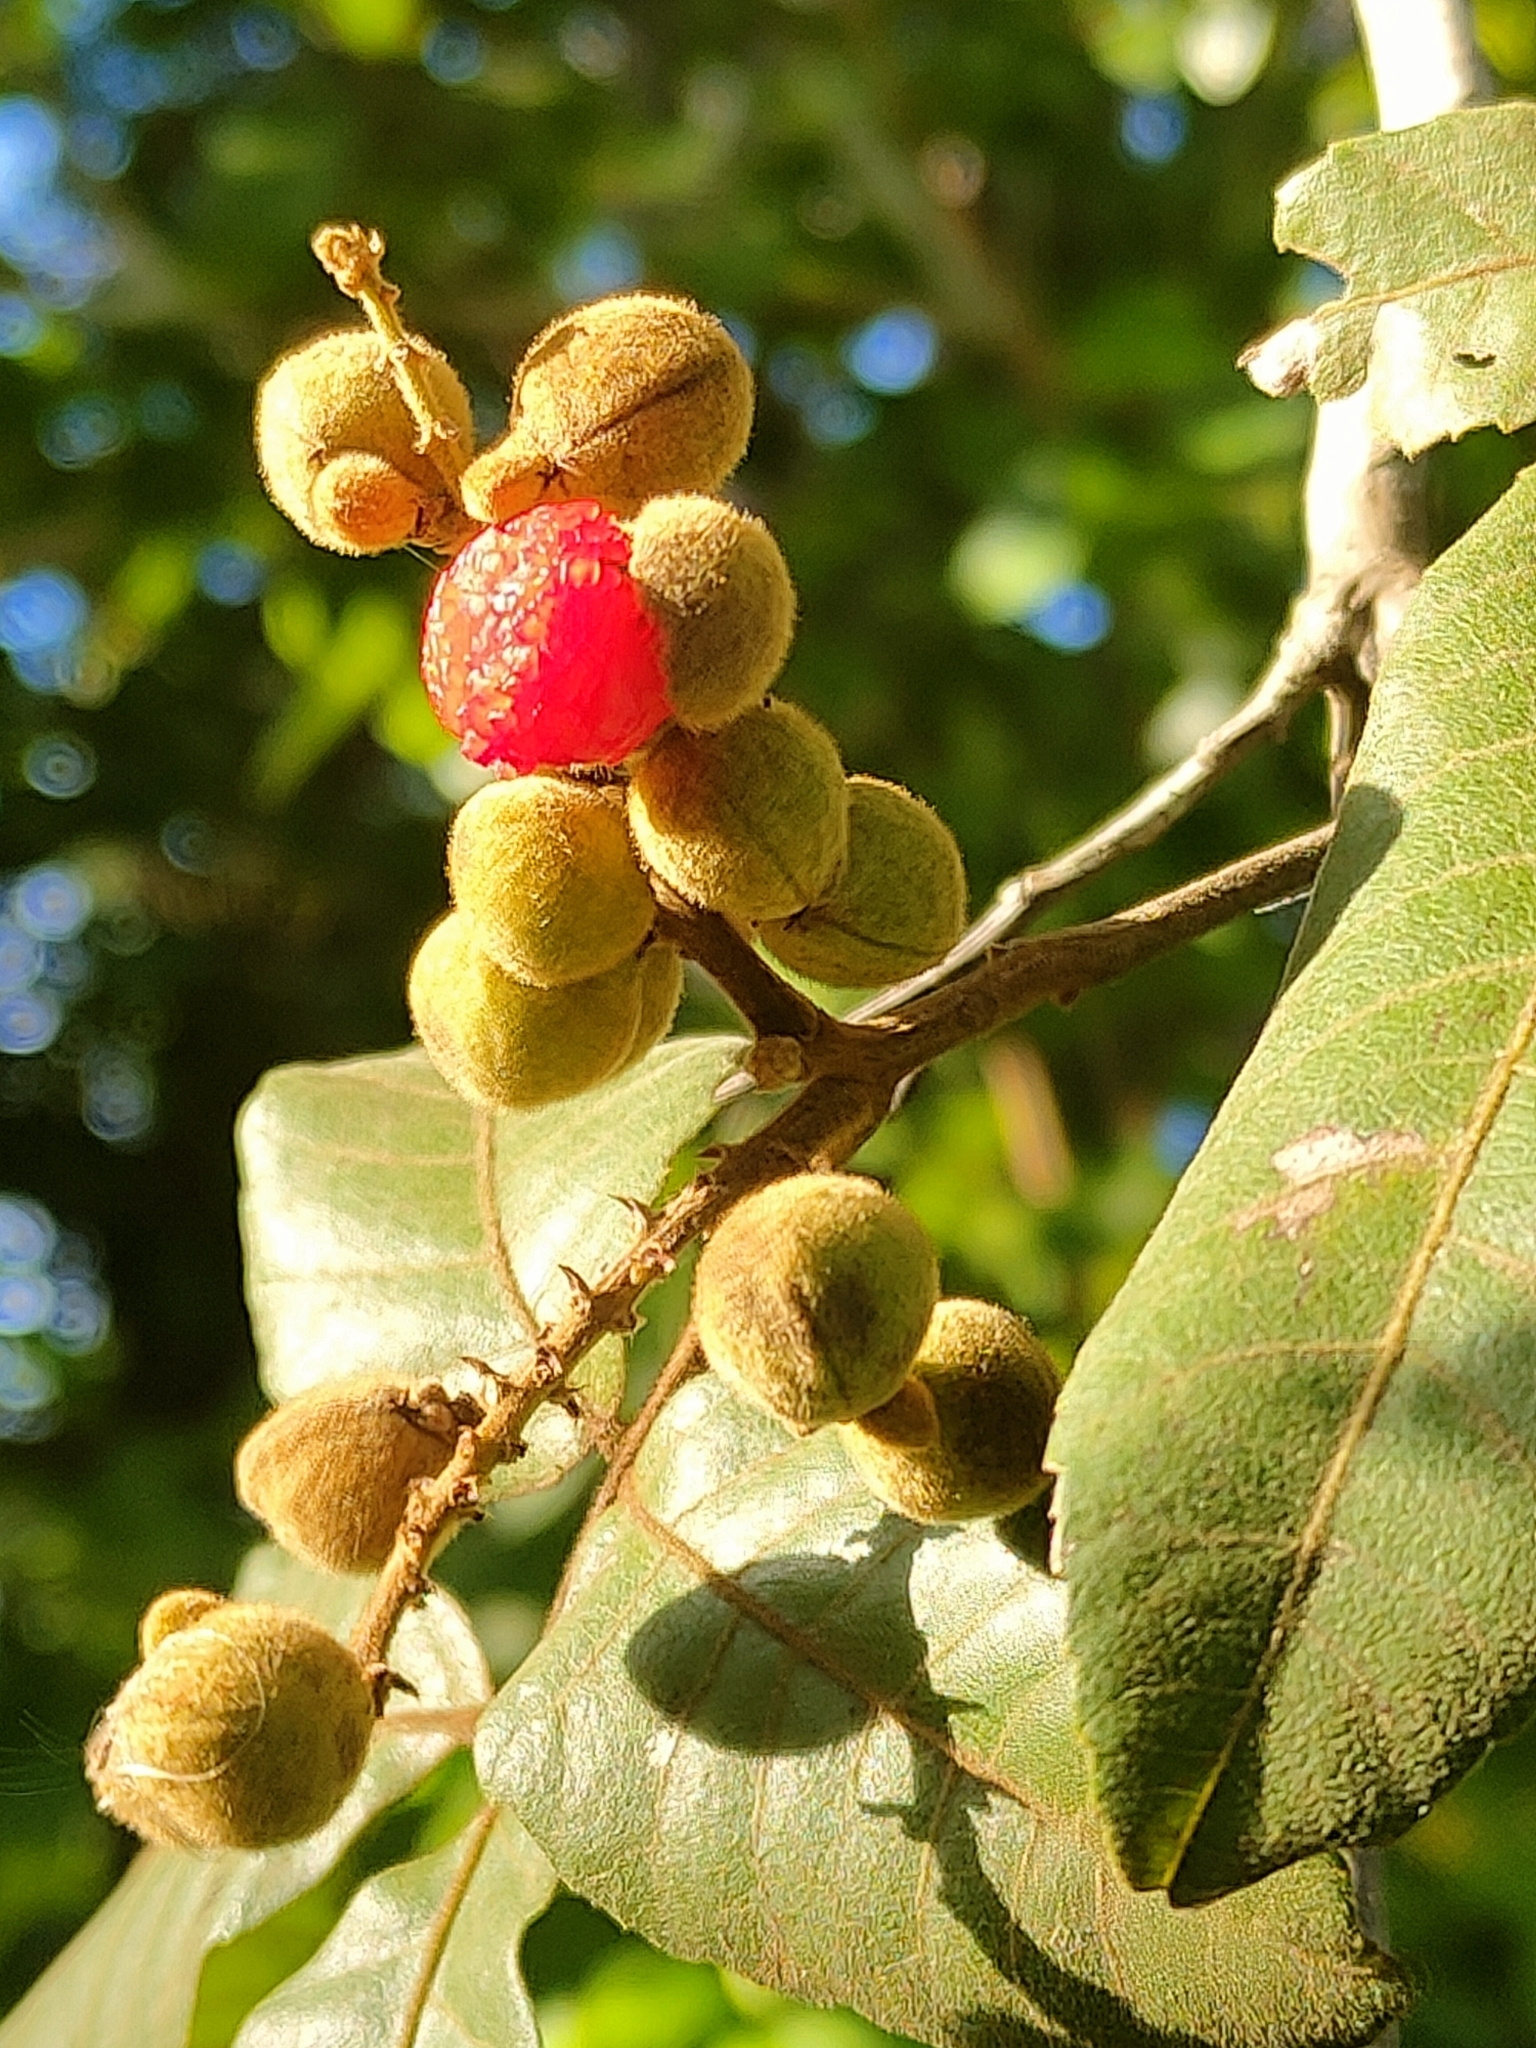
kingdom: Plantae
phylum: Tracheophyta
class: Magnoliopsida
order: Sapindales
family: Sapindaceae
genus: Alectryon
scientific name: Alectryon tomentosus
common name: Bed-jacket
